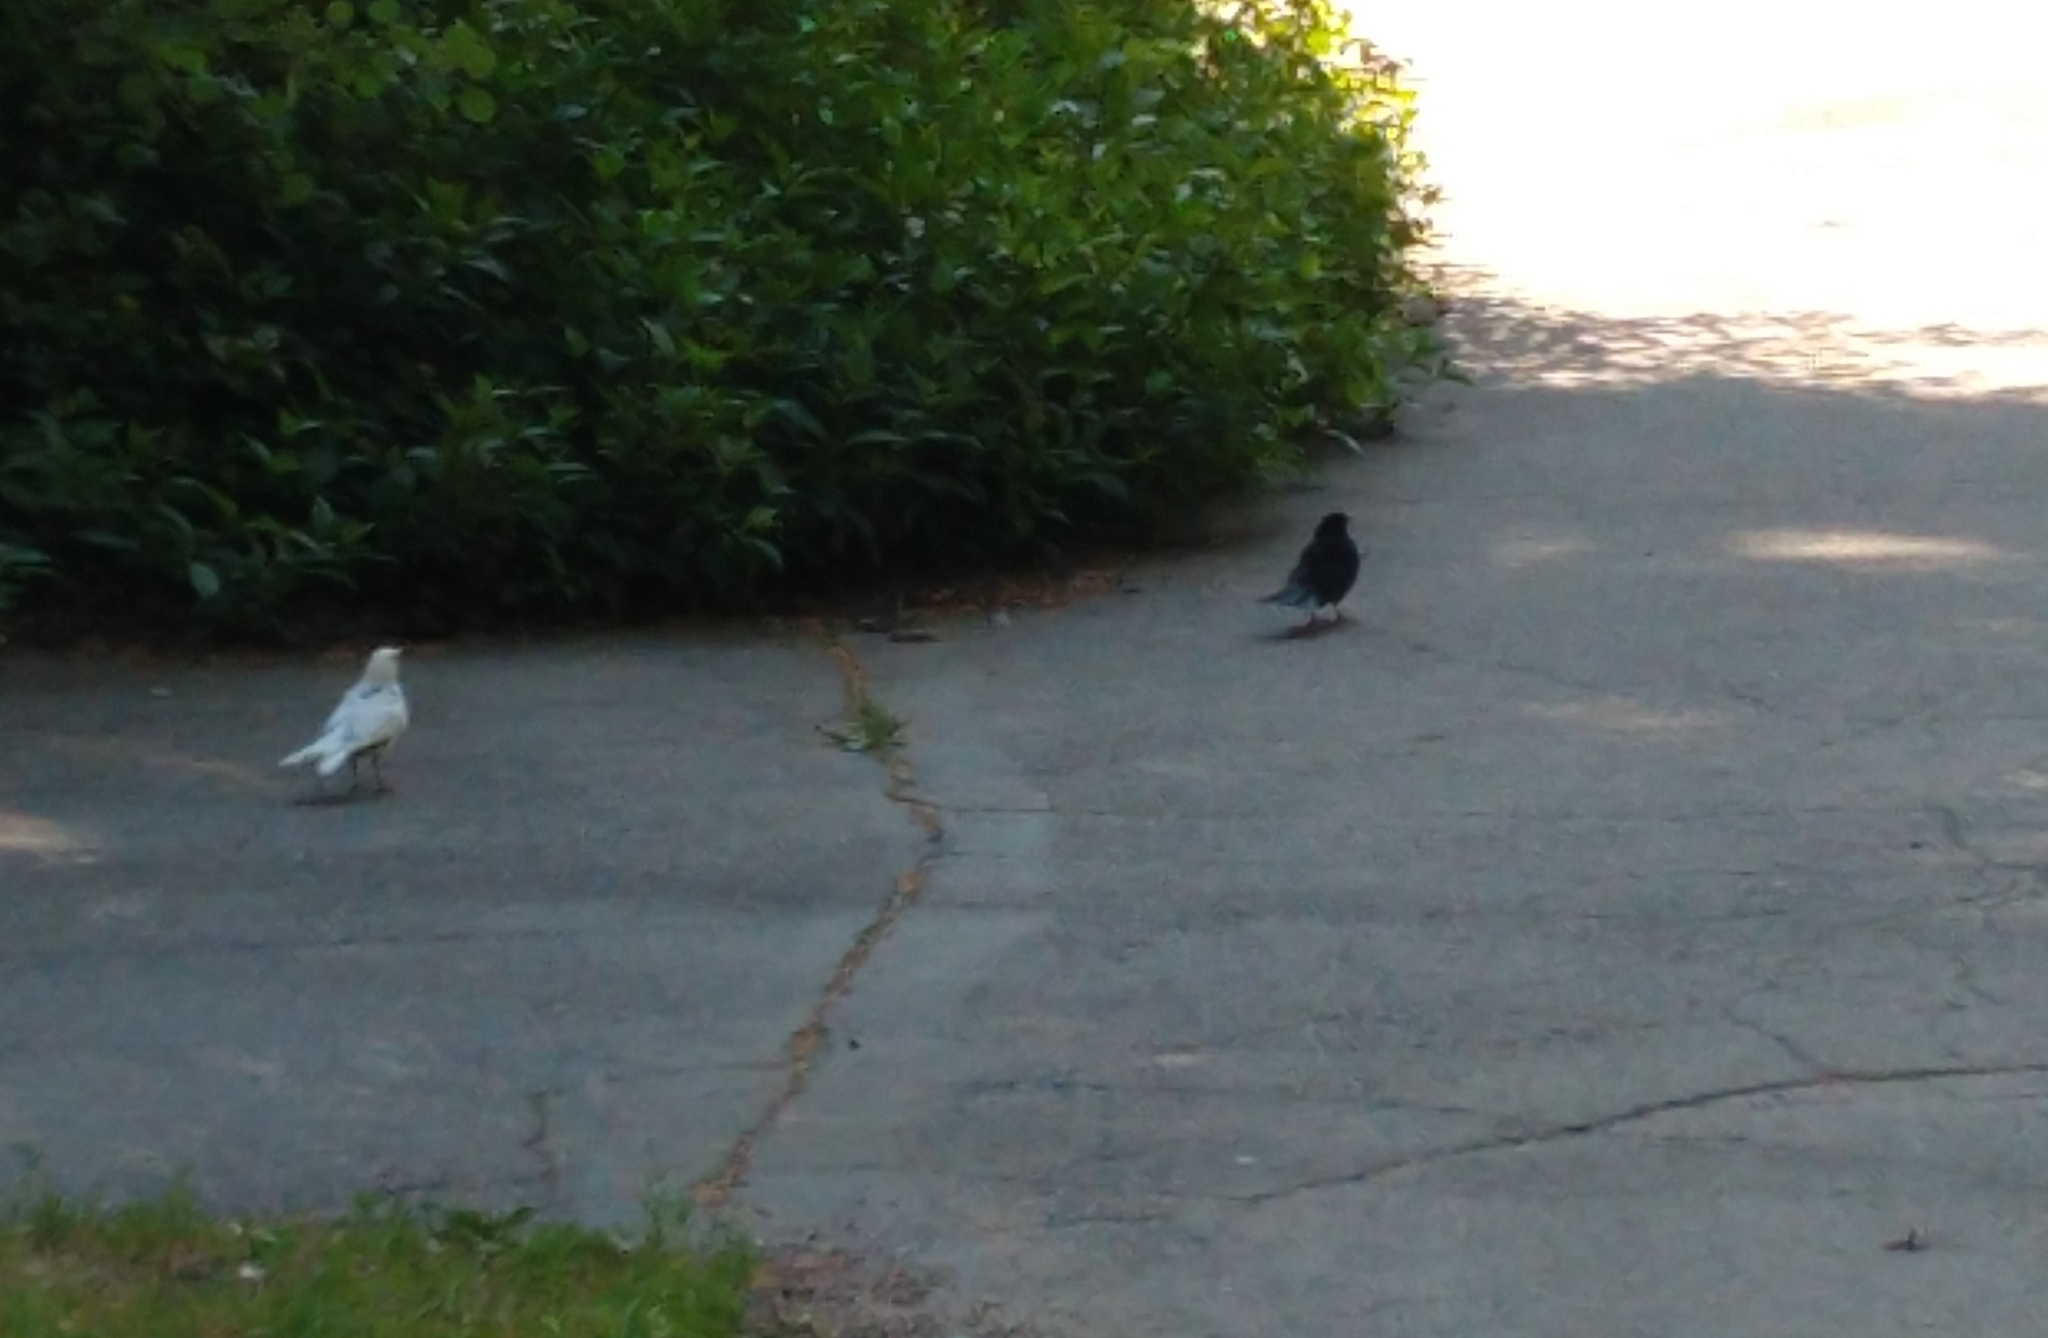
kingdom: Animalia
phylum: Chordata
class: Aves
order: Passeriformes
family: Turdidae
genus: Turdus
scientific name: Turdus merula
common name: Common blackbird
